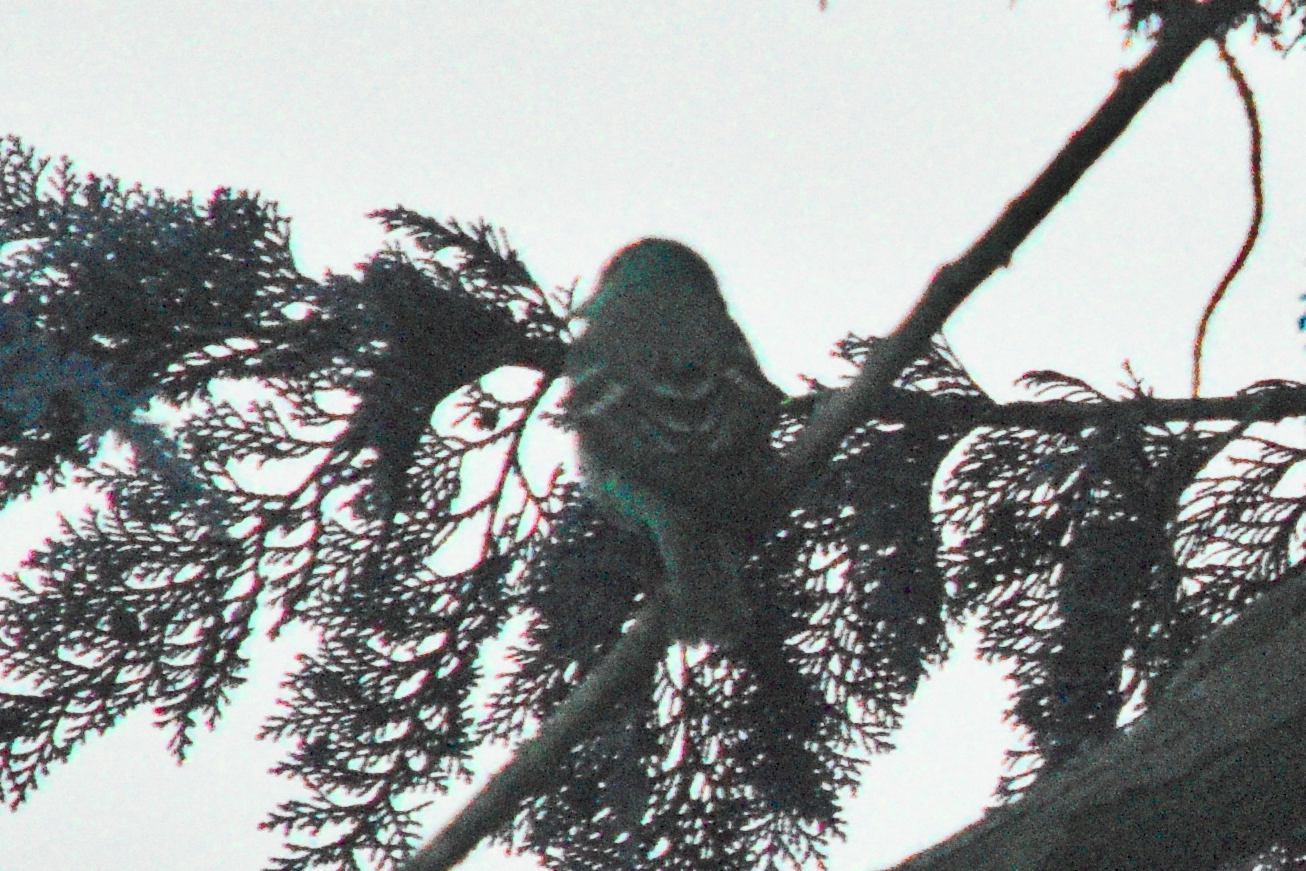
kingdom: Animalia
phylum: Chordata
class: Aves
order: Passeriformes
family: Cardinalidae
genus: Piranga
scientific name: Piranga ludoviciana
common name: Western tanager
